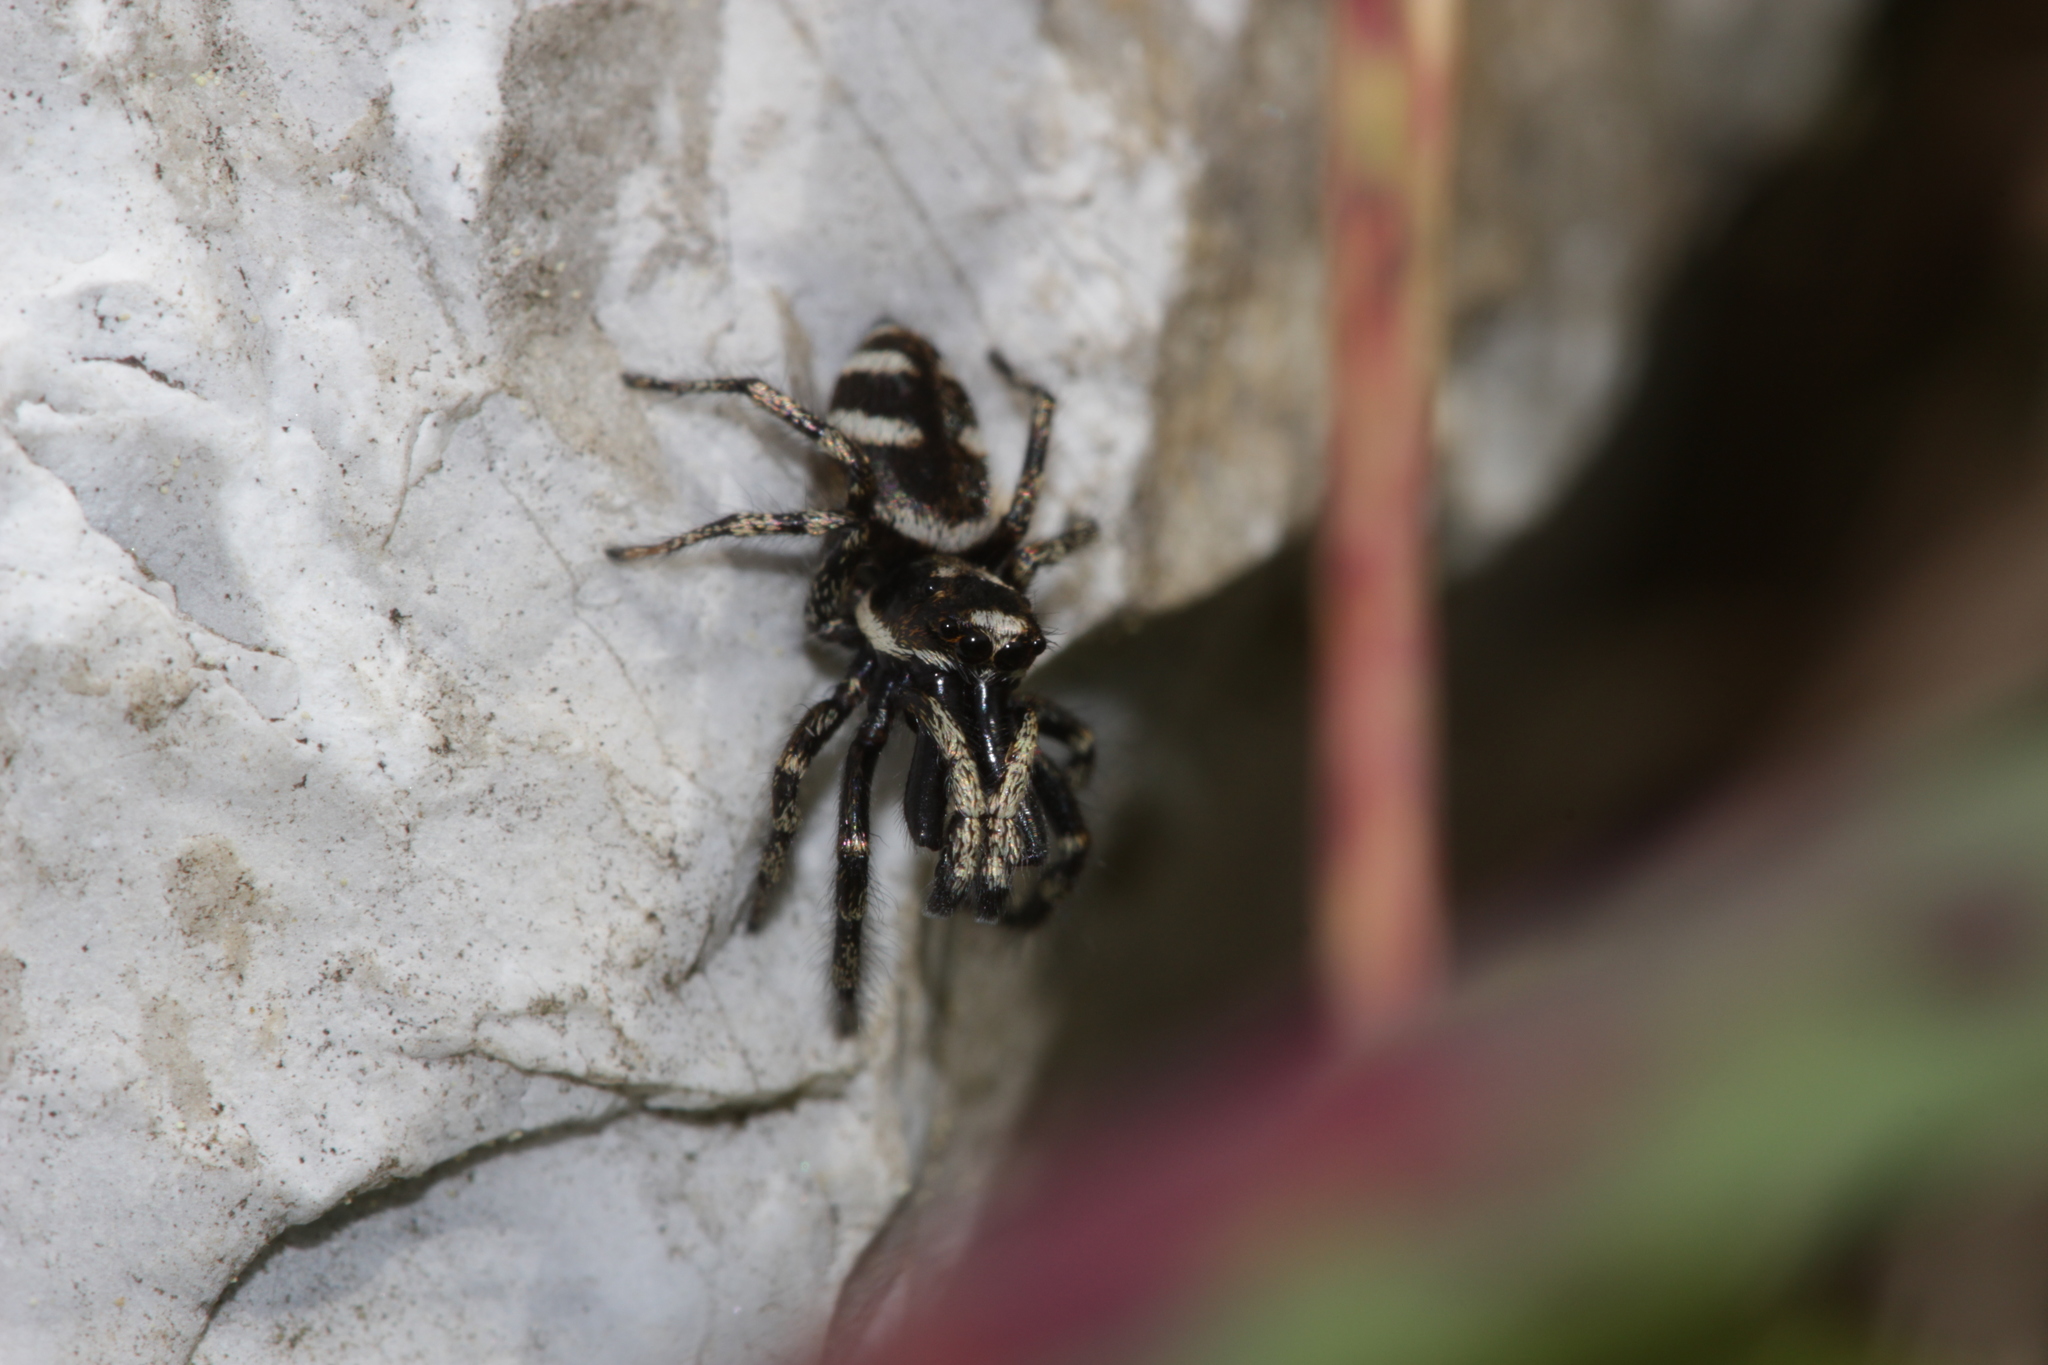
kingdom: Animalia
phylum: Arthropoda
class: Arachnida
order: Araneae
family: Salticidae
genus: Salticus
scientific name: Salticus scenicus
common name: Zebra jumper
